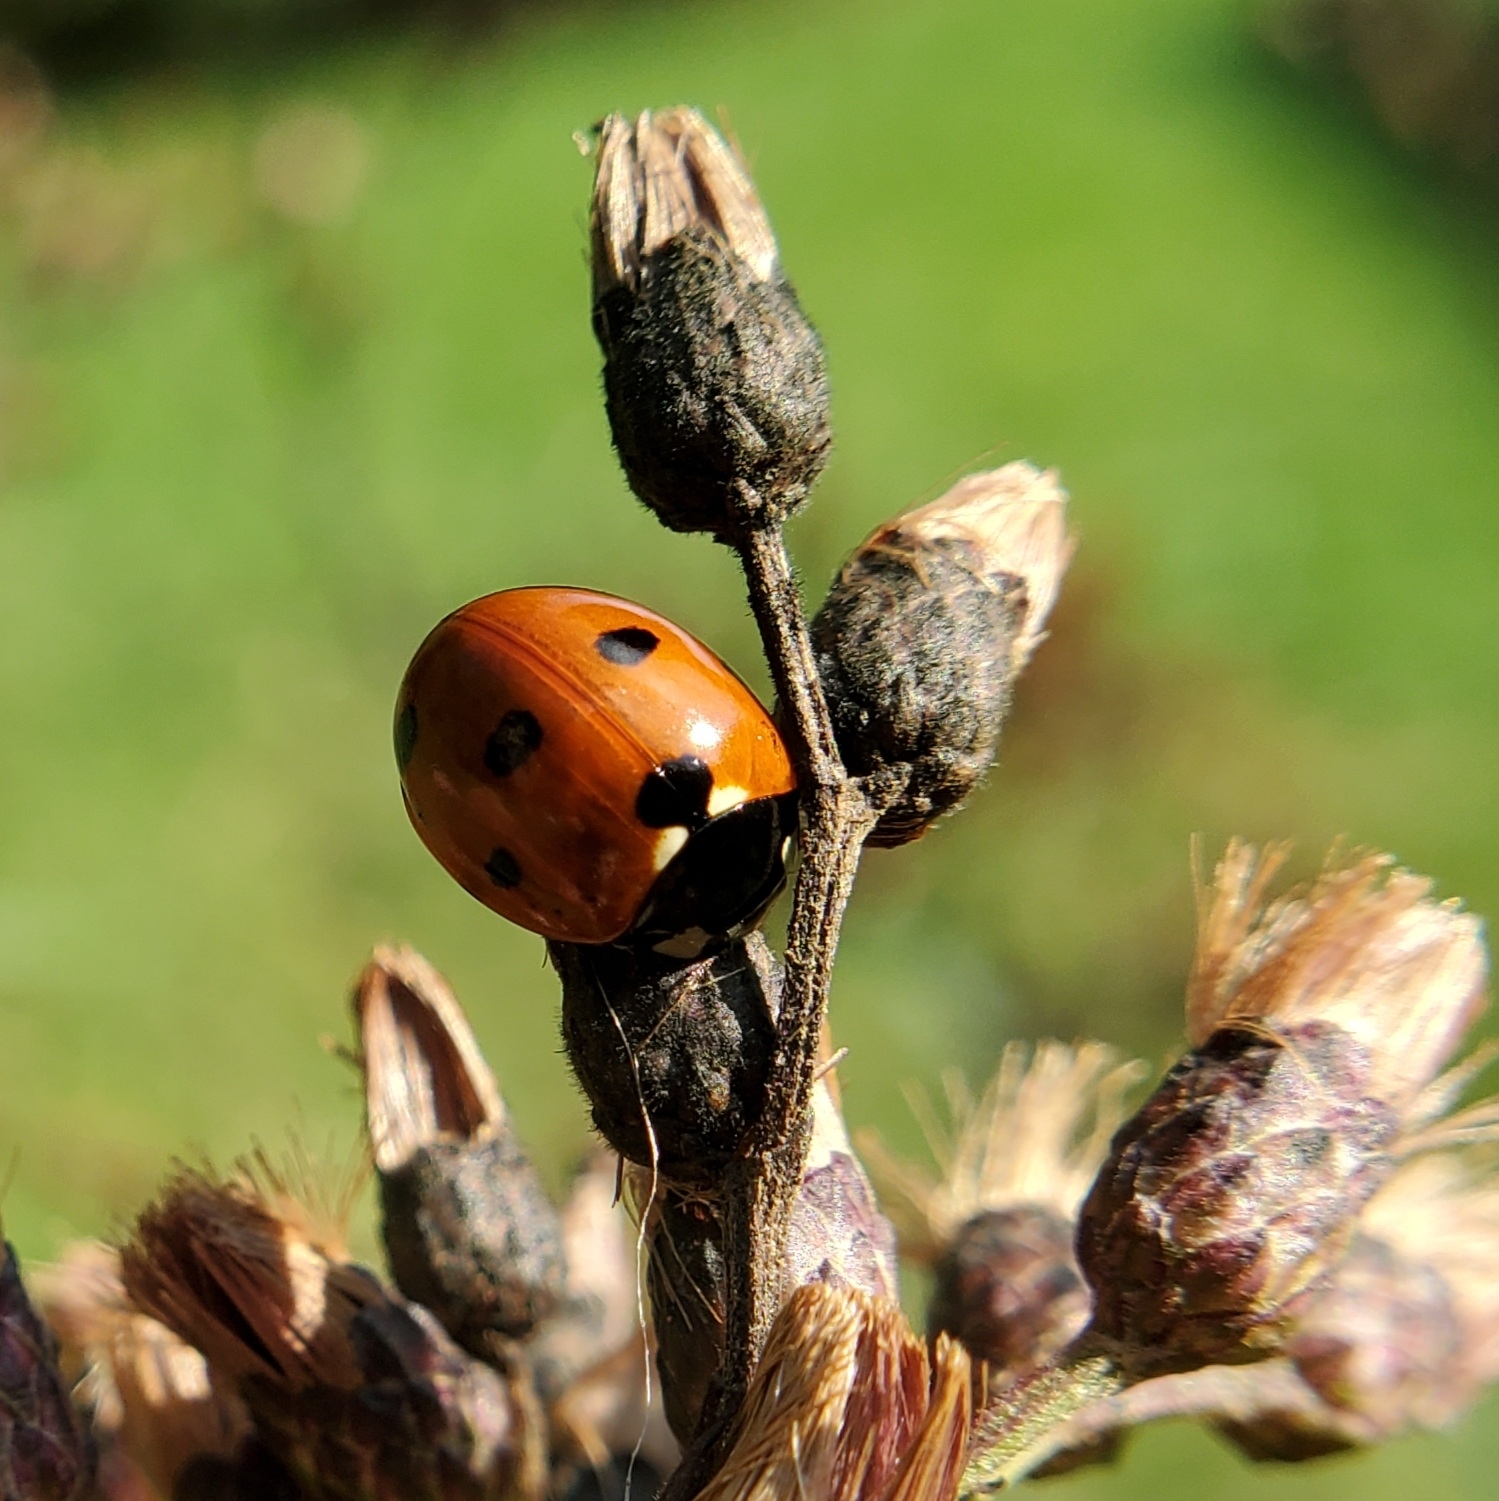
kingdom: Animalia
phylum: Arthropoda
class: Insecta
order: Coleoptera
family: Coccinellidae
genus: Coccinella
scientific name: Coccinella septempunctata
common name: Sevenspotted lady beetle
